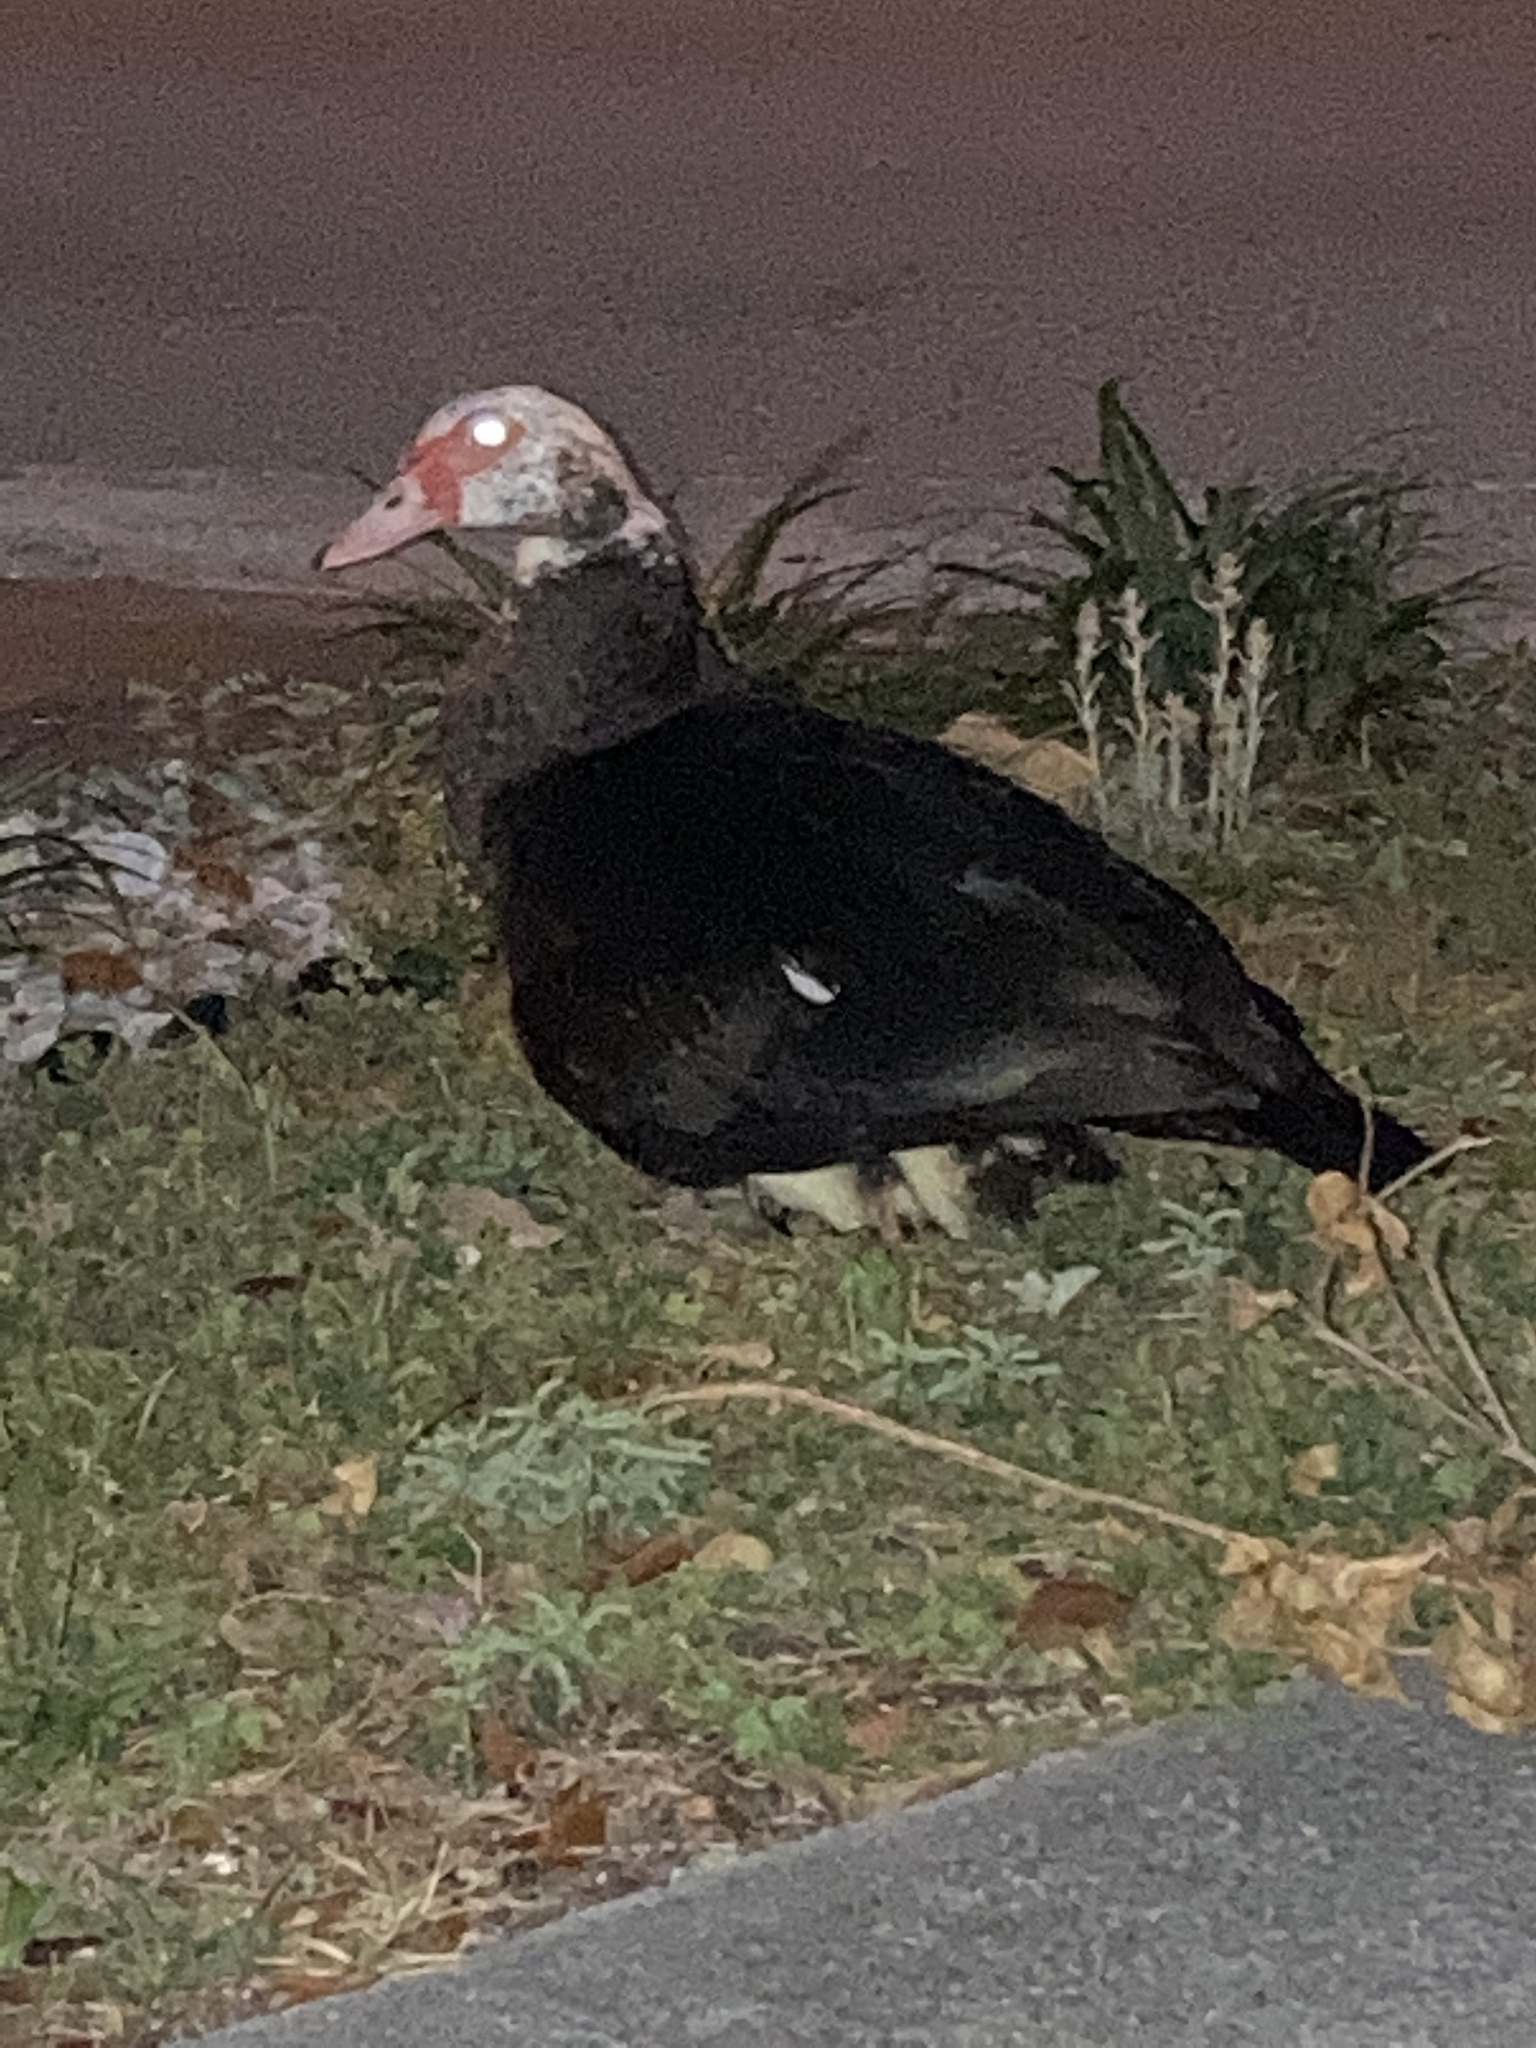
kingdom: Animalia
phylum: Chordata
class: Aves
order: Anseriformes
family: Anatidae
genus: Cairina
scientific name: Cairina moschata
